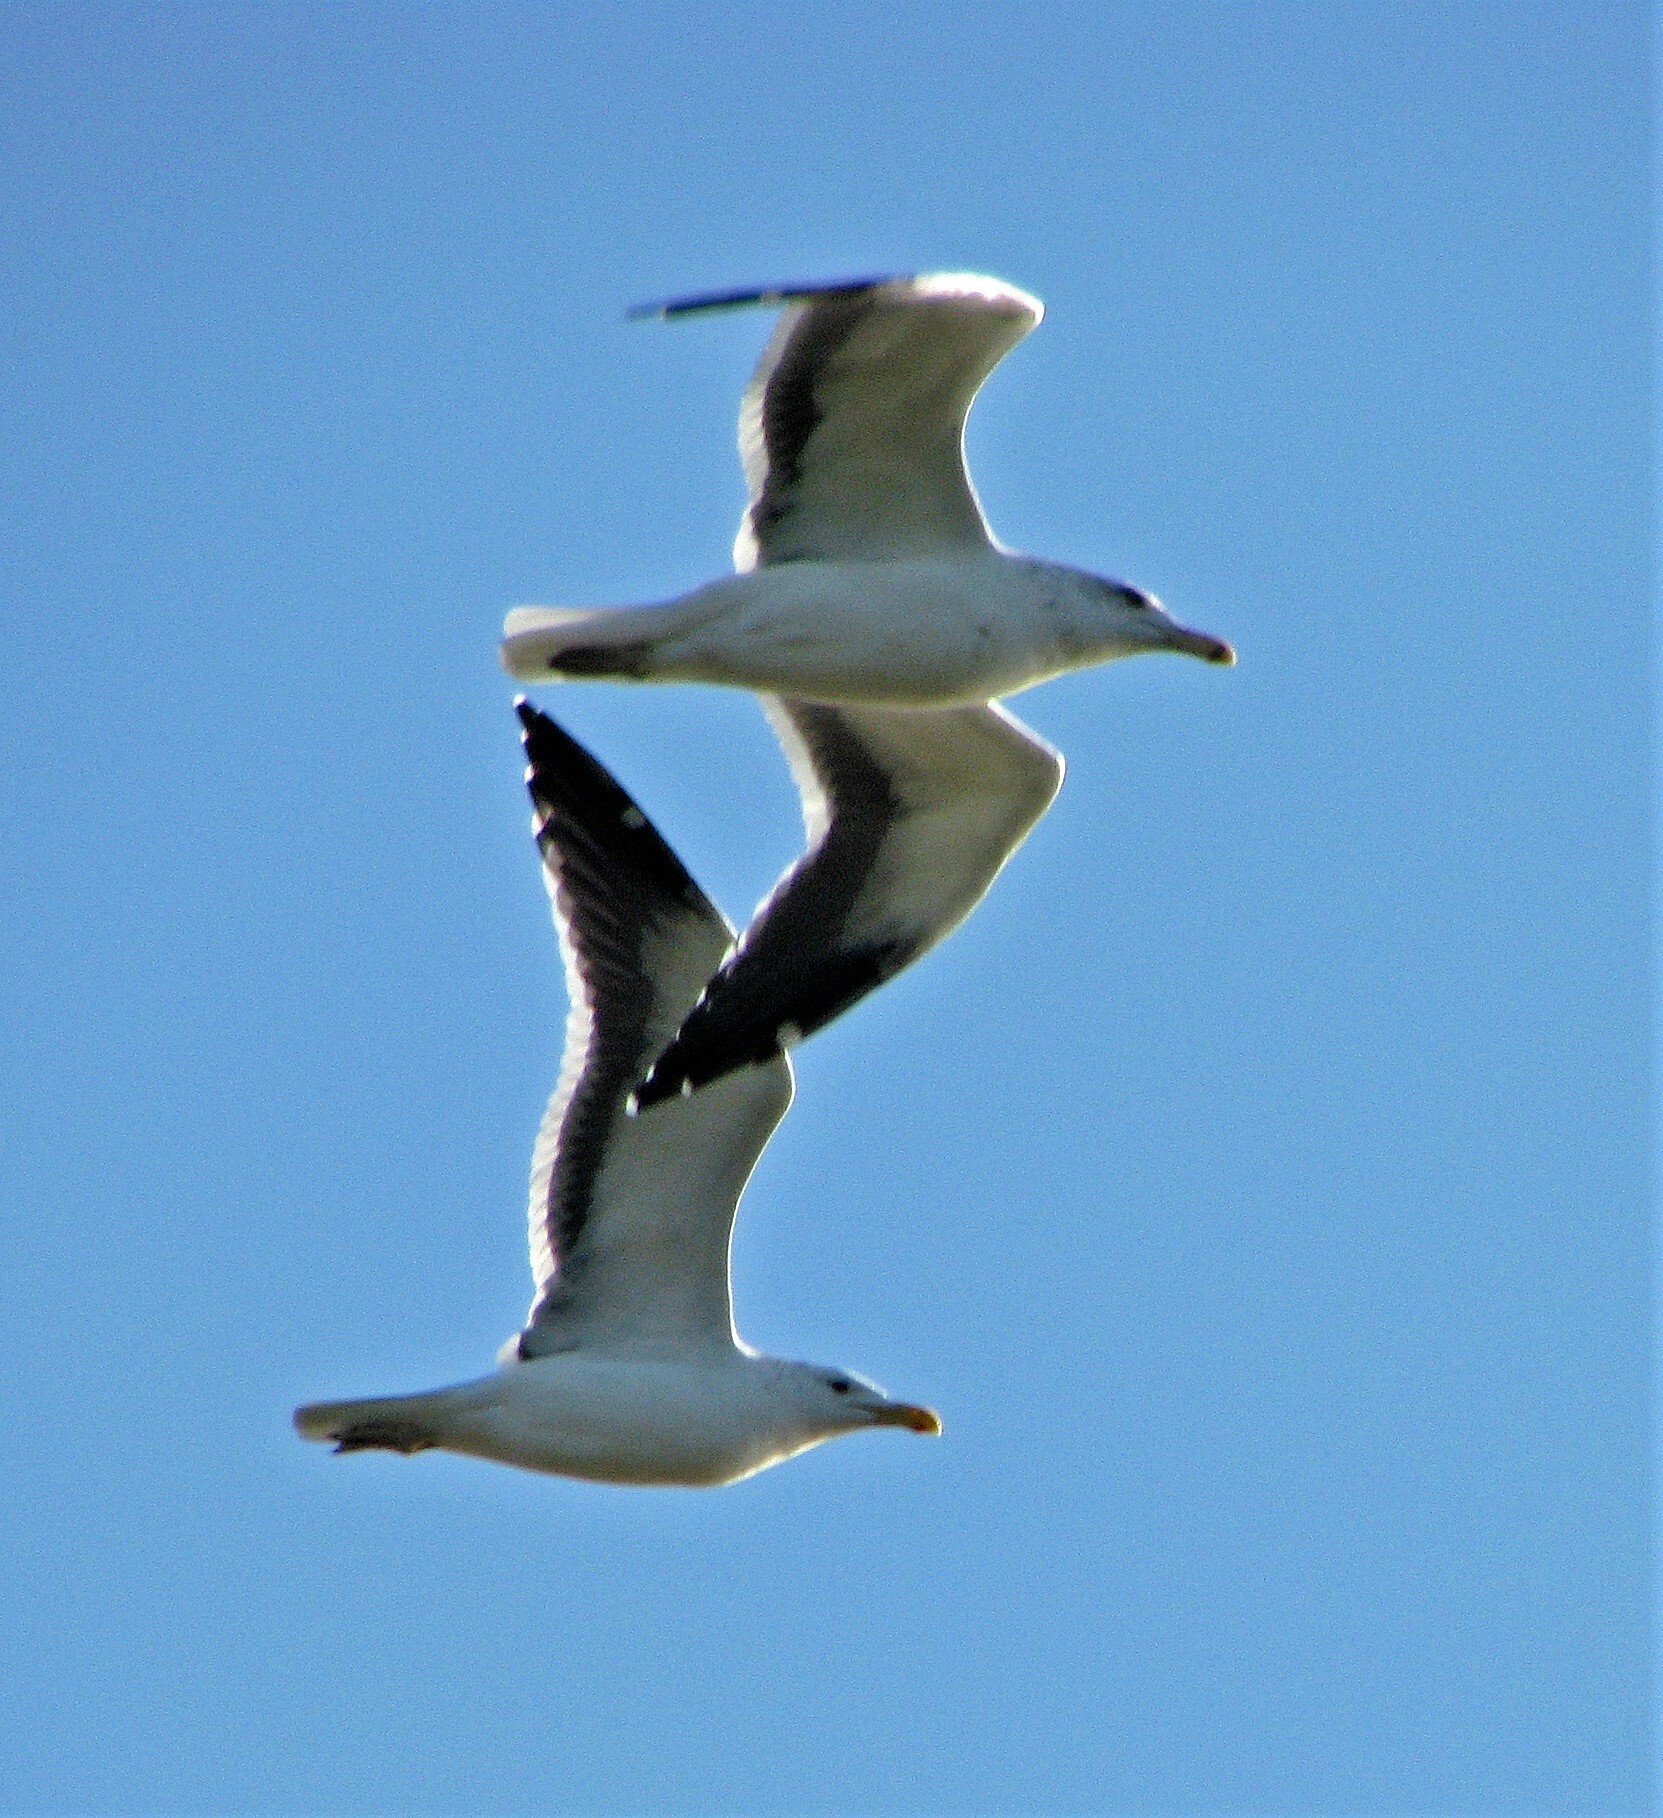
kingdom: Animalia
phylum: Chordata
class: Aves
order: Charadriiformes
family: Laridae
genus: Larus
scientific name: Larus dominicanus
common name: Kelp gull
